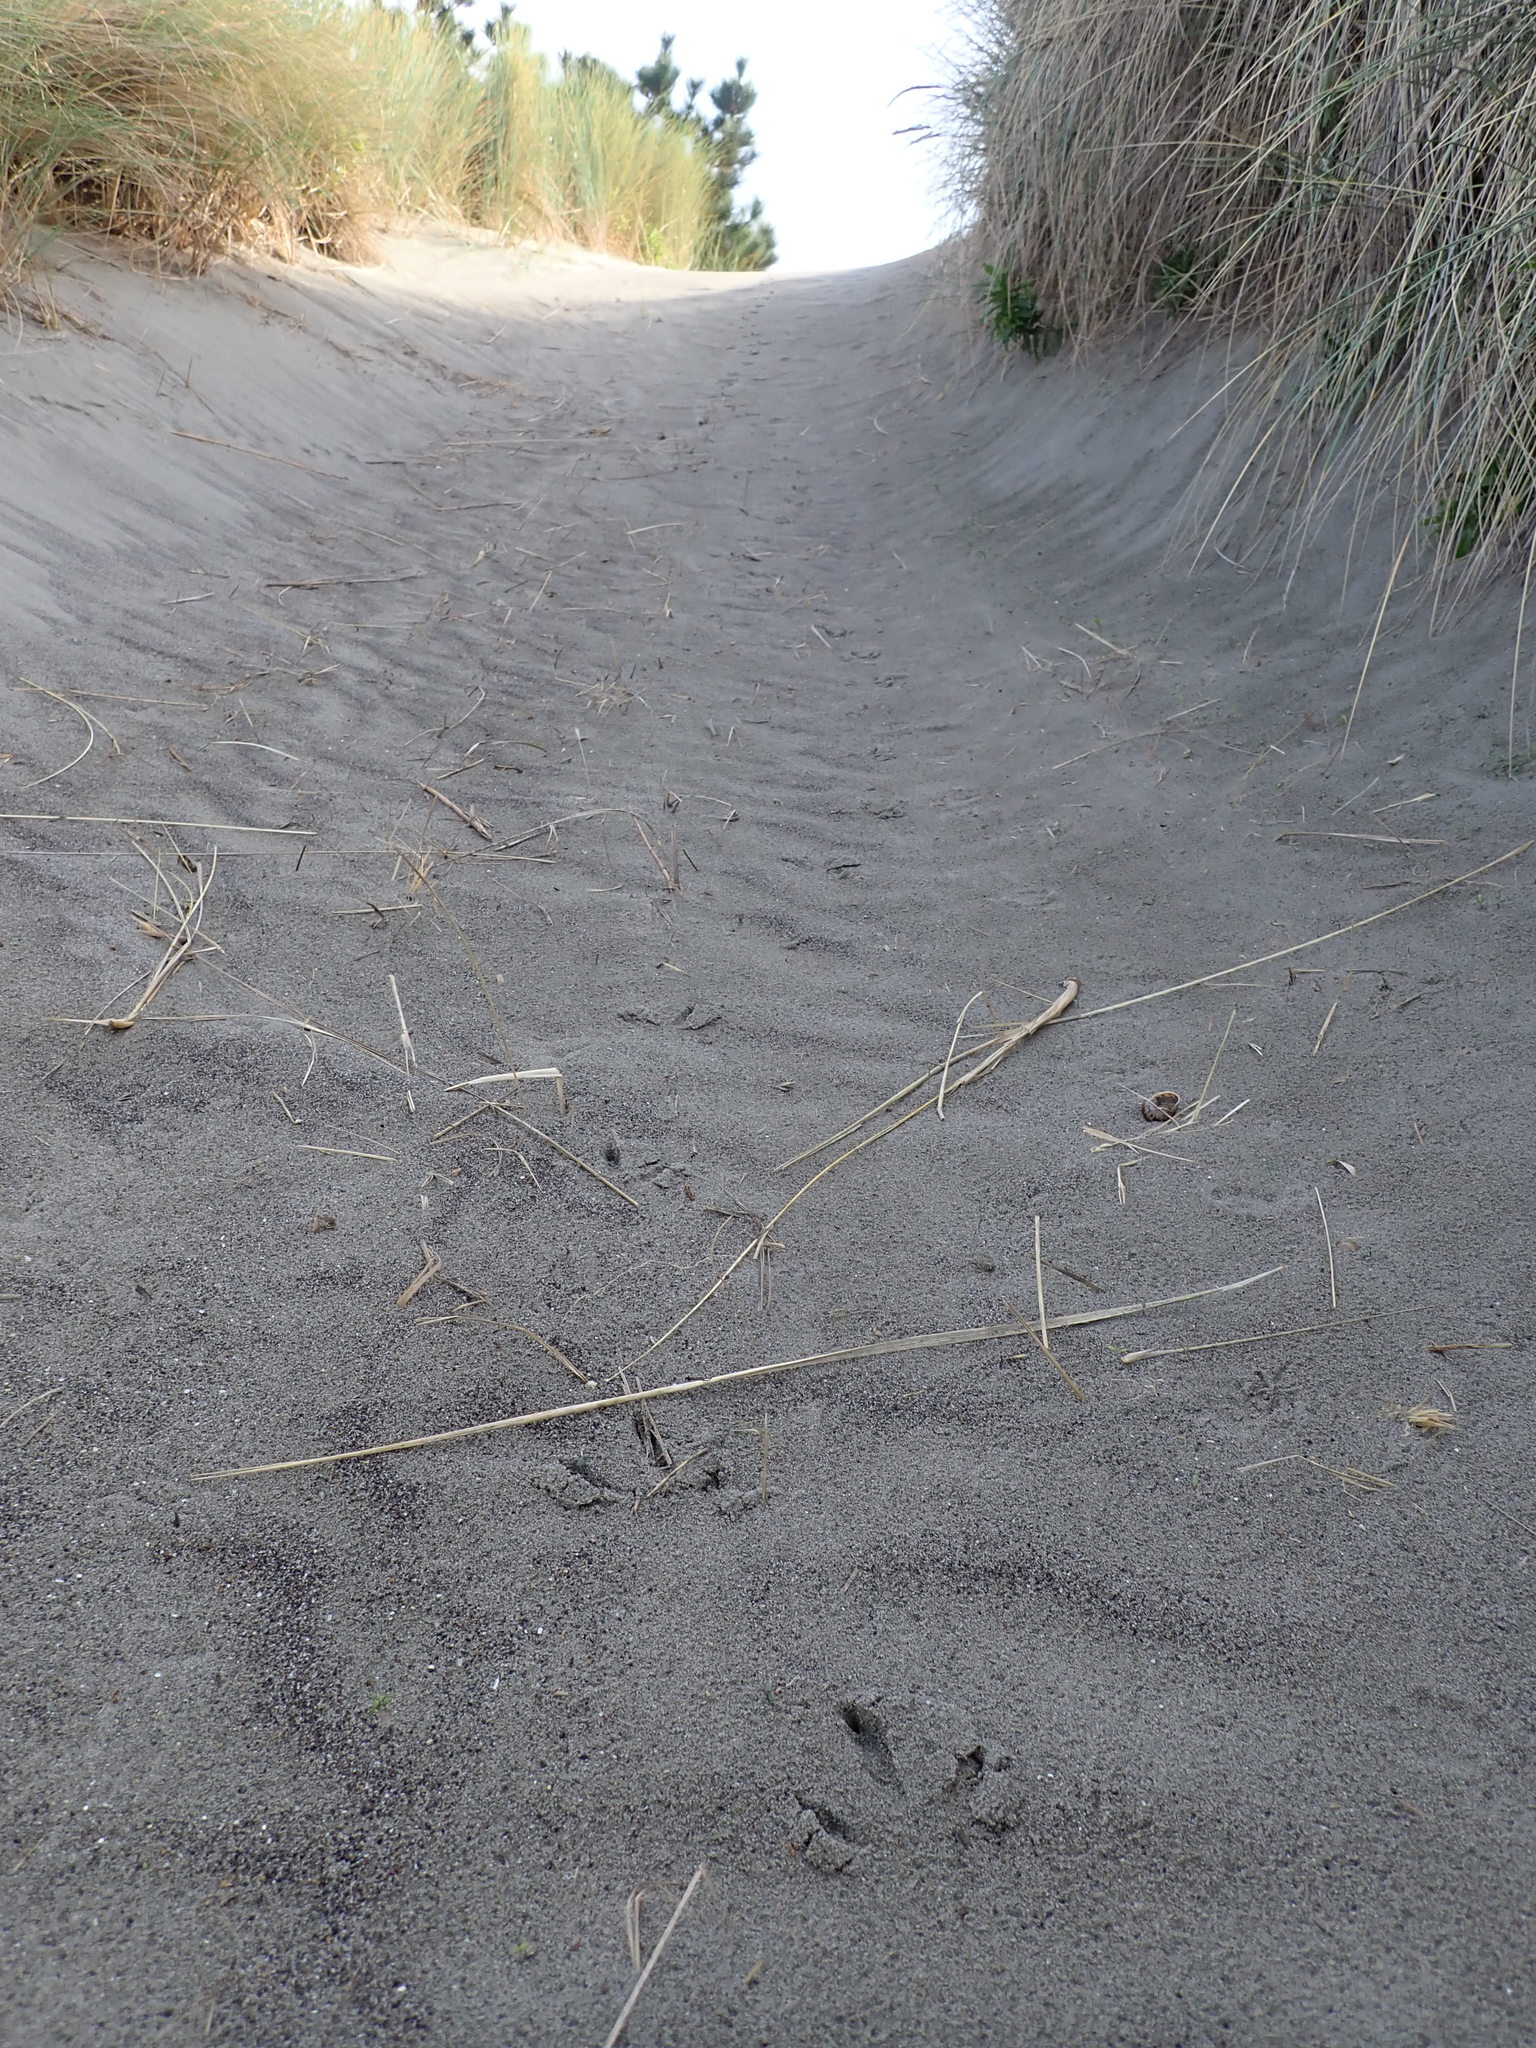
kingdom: Animalia
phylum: Chordata
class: Aves
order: Galliformes
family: Phasianidae
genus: Phasianus
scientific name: Phasianus colchicus
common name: Common pheasant
